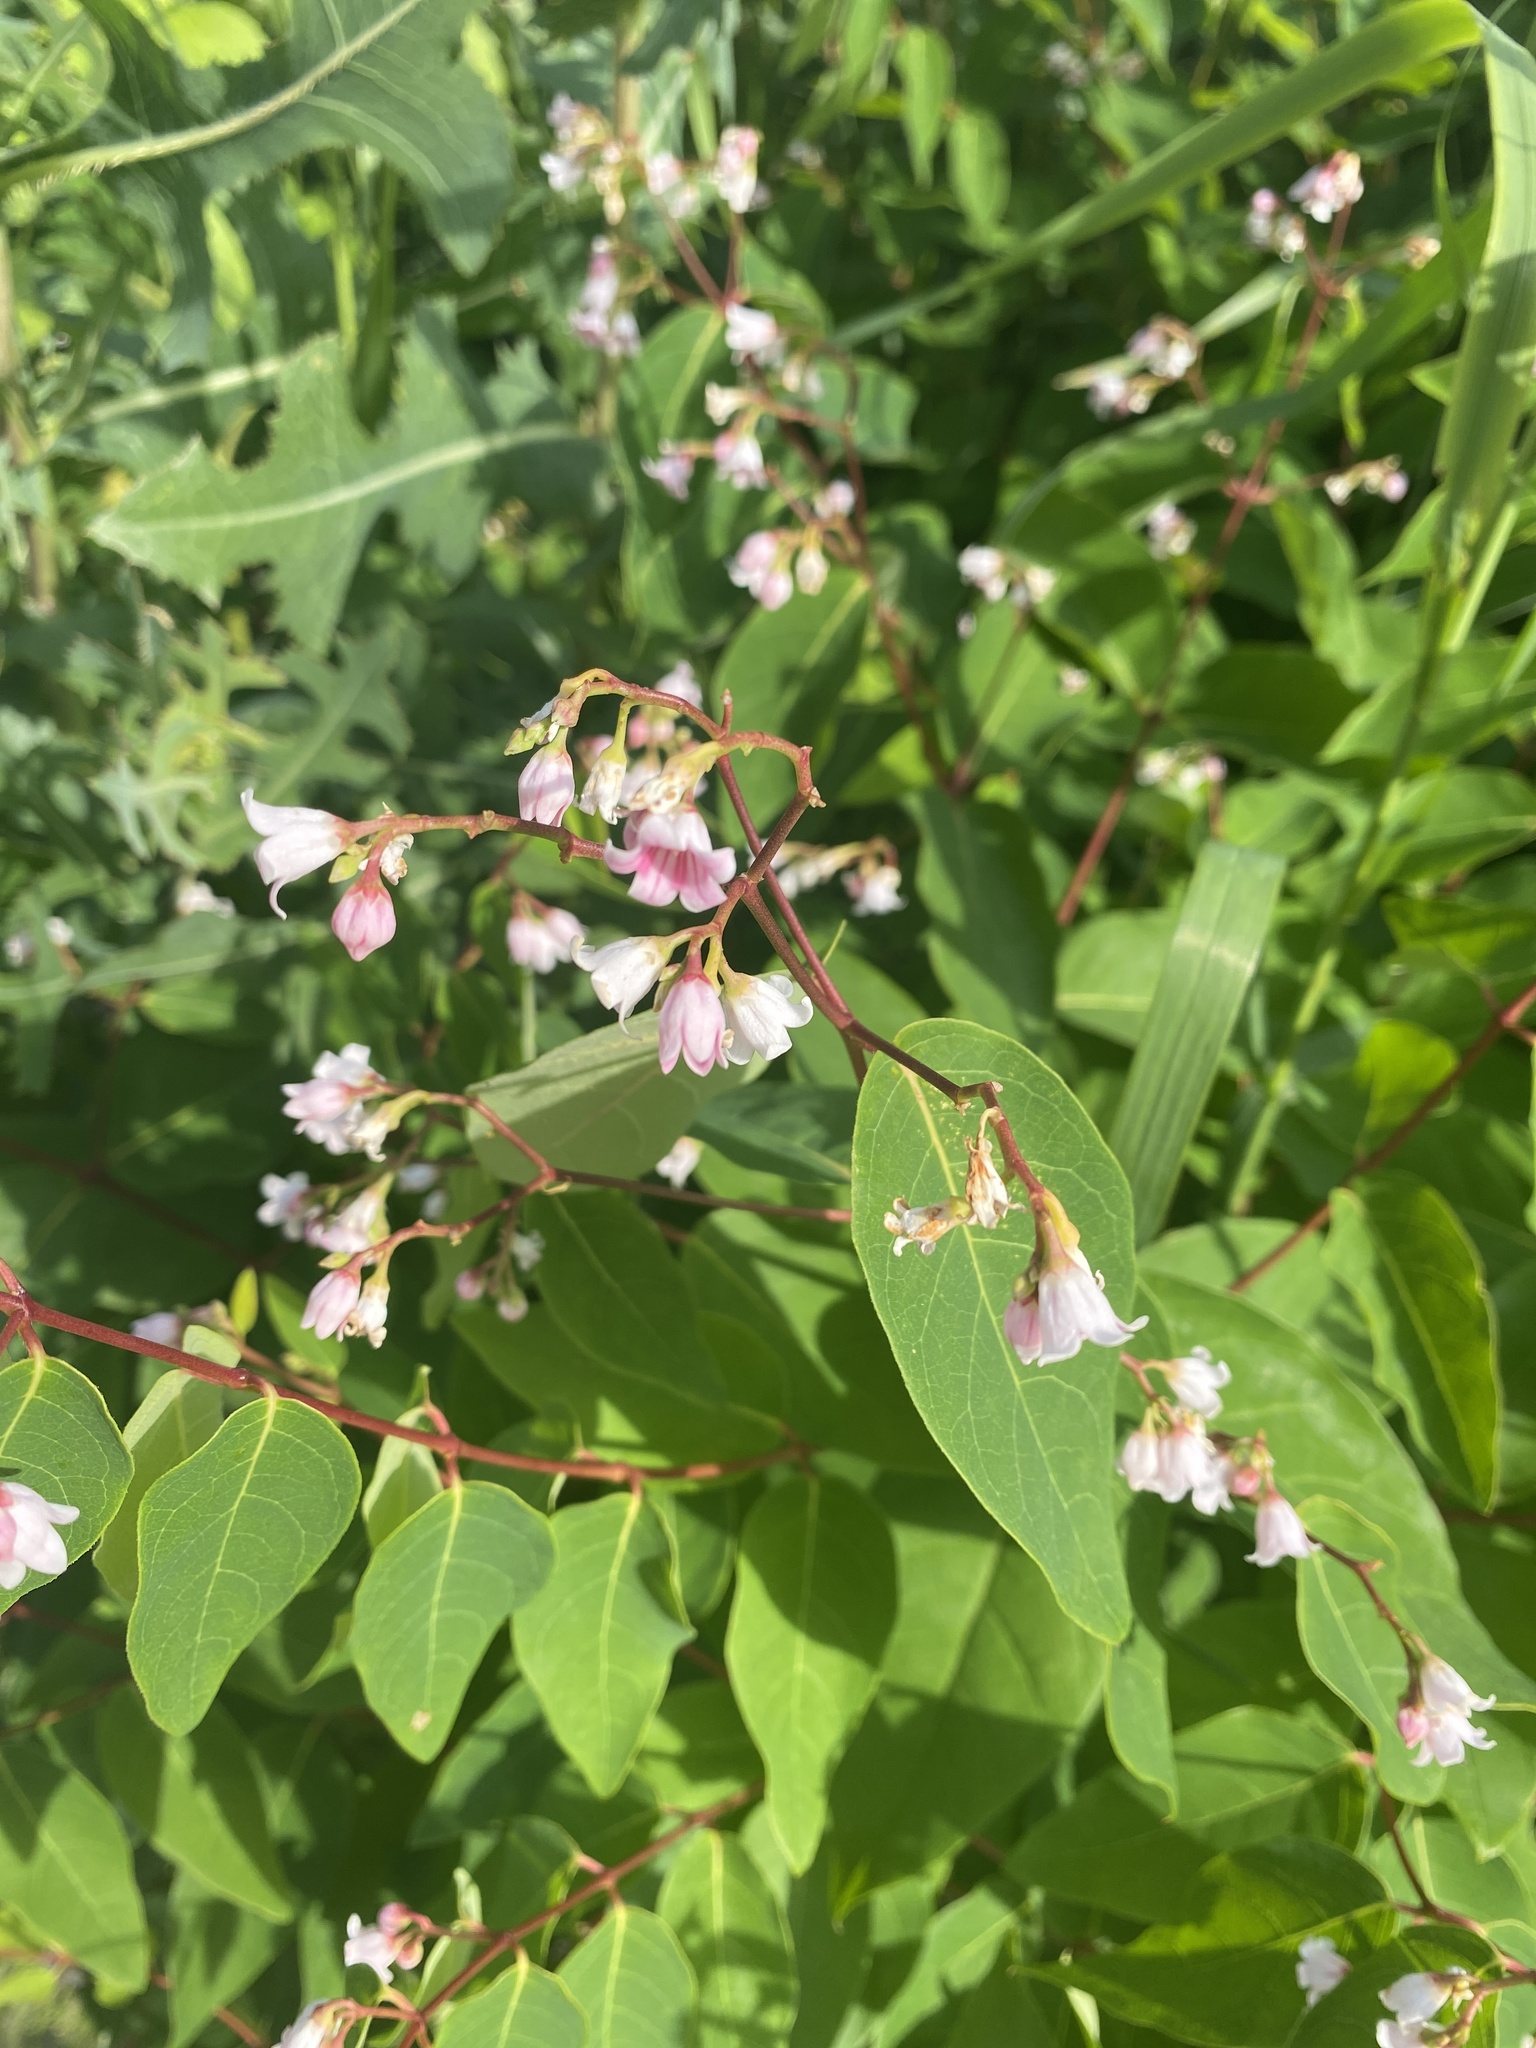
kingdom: Plantae
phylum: Tracheophyta
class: Magnoliopsida
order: Gentianales
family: Apocynaceae
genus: Apocynum
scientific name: Apocynum androsaemifolium
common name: Spreading dogbane
